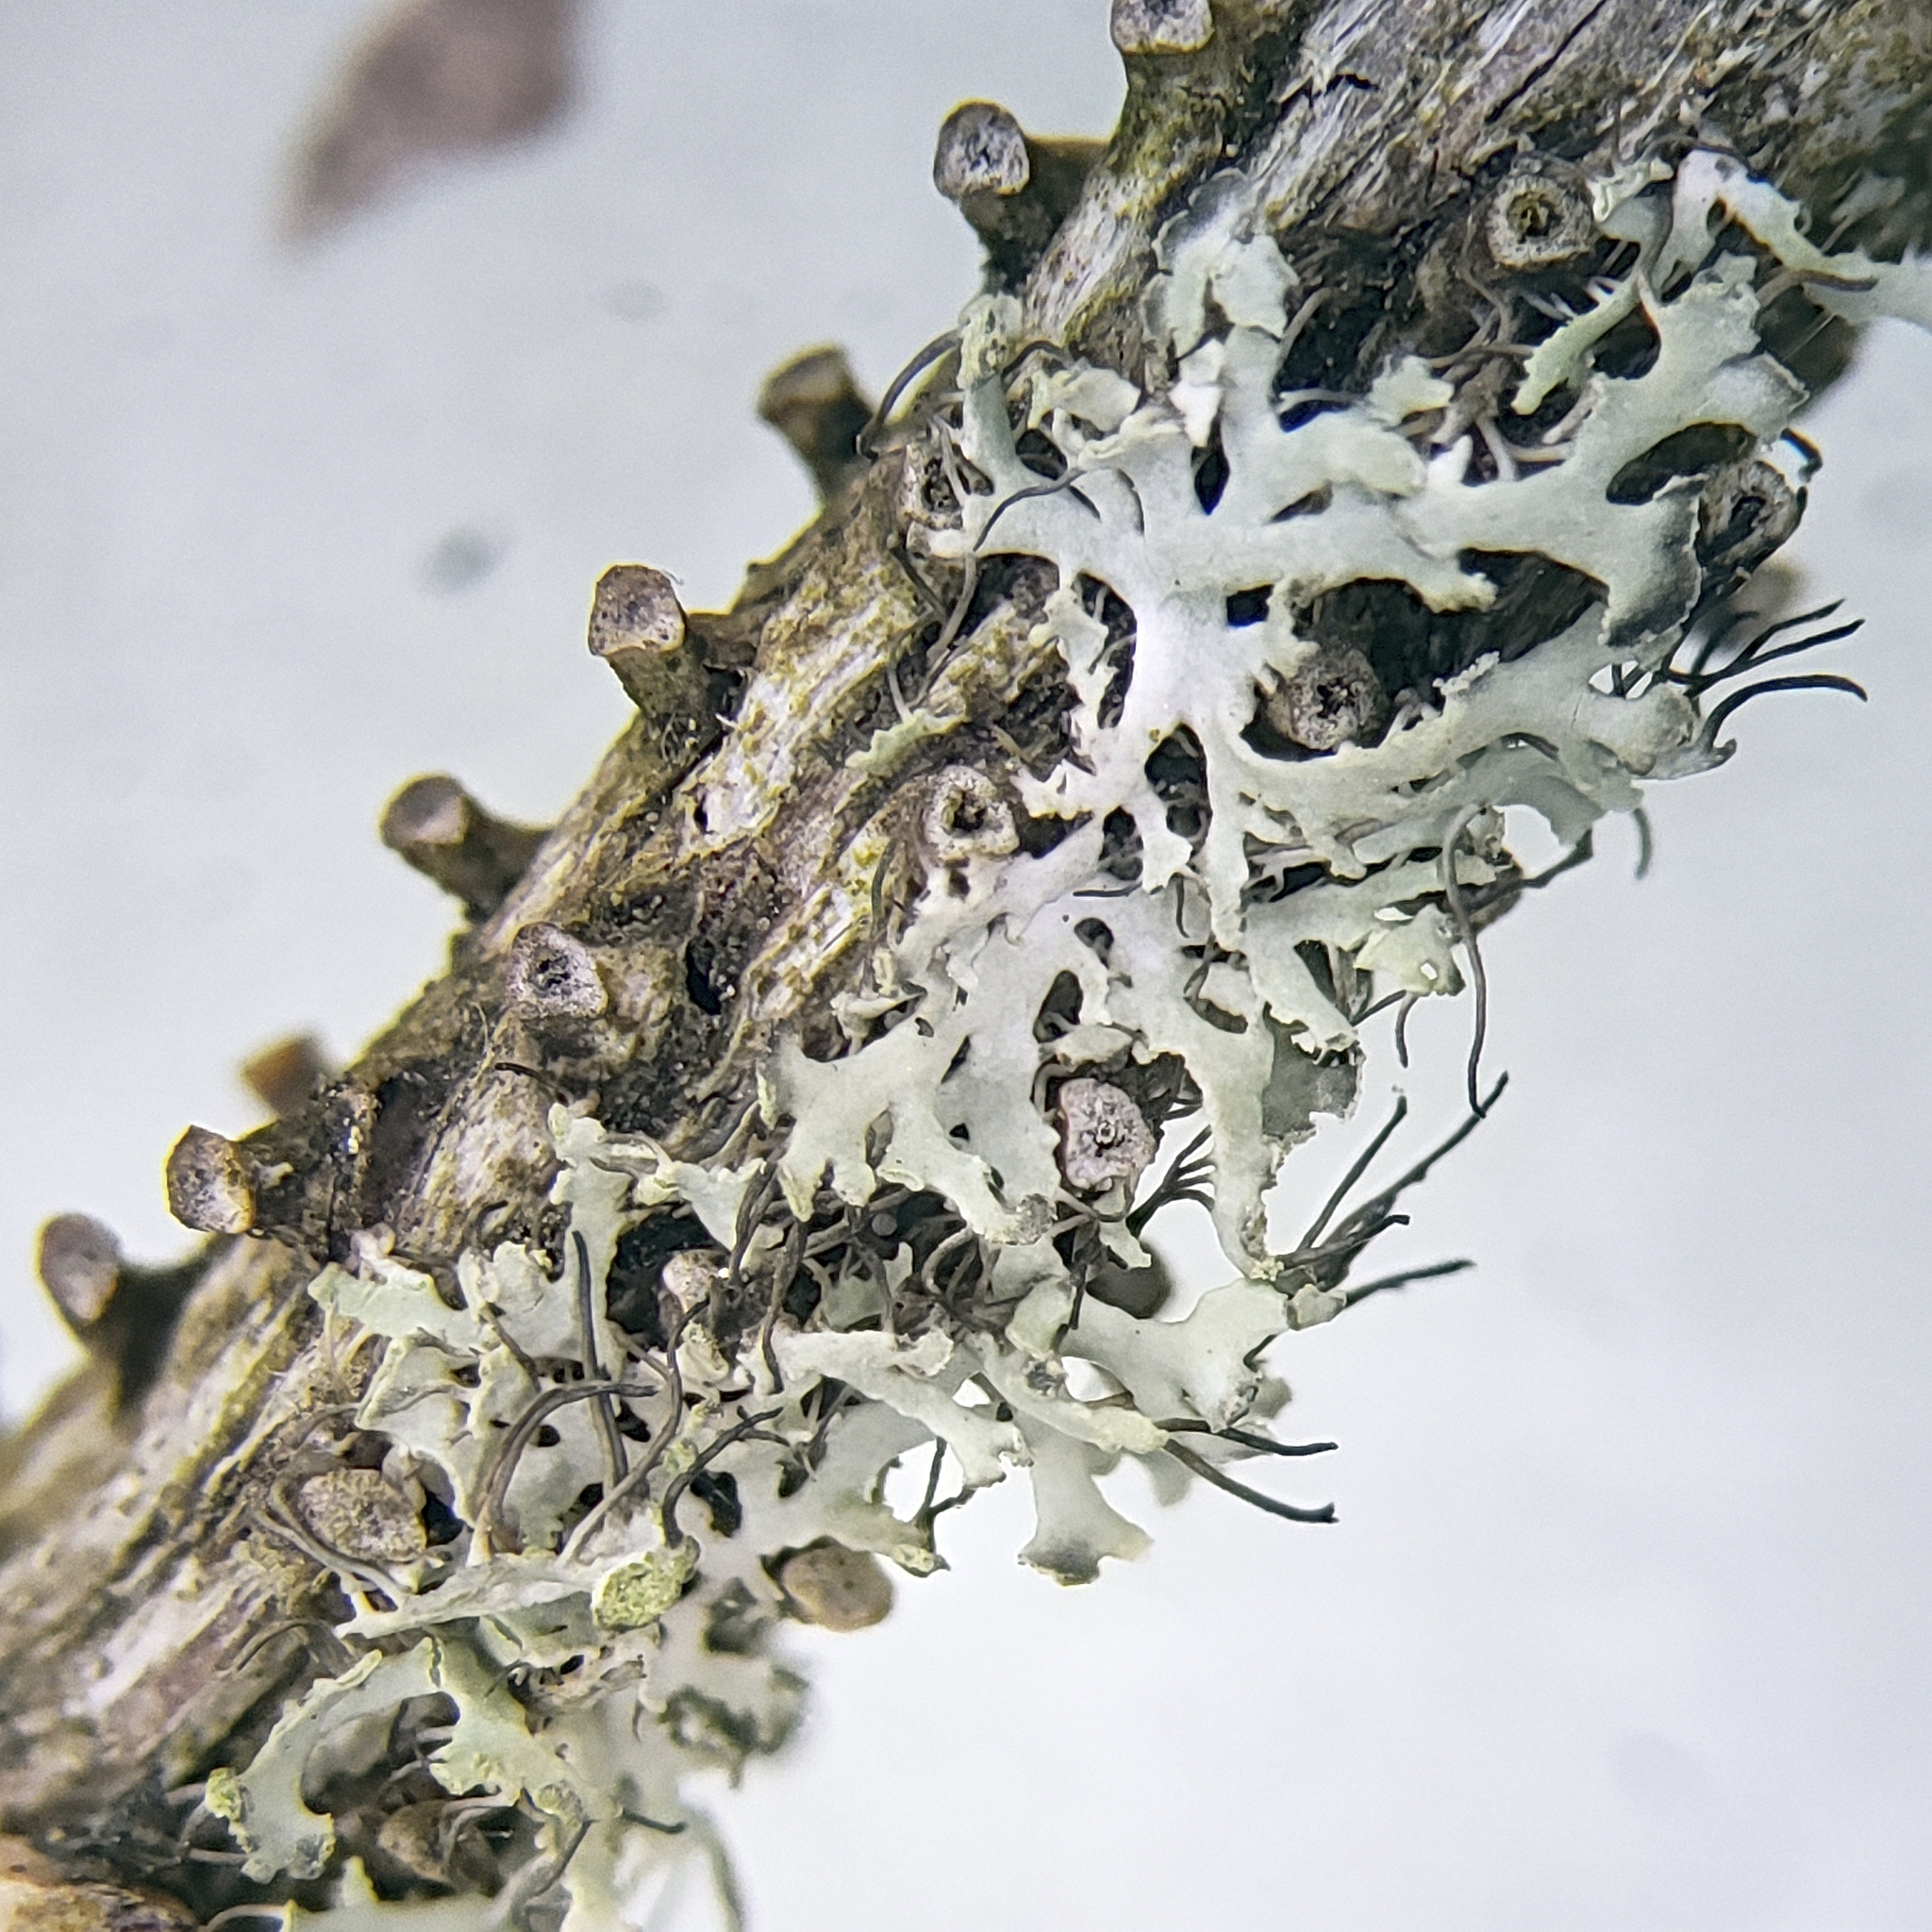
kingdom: Fungi
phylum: Ascomycota
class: Lecanoromycetes
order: Caliciales
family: Physciaceae
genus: Physcia
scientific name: Physcia tenella
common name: Fringed rosette lichen
